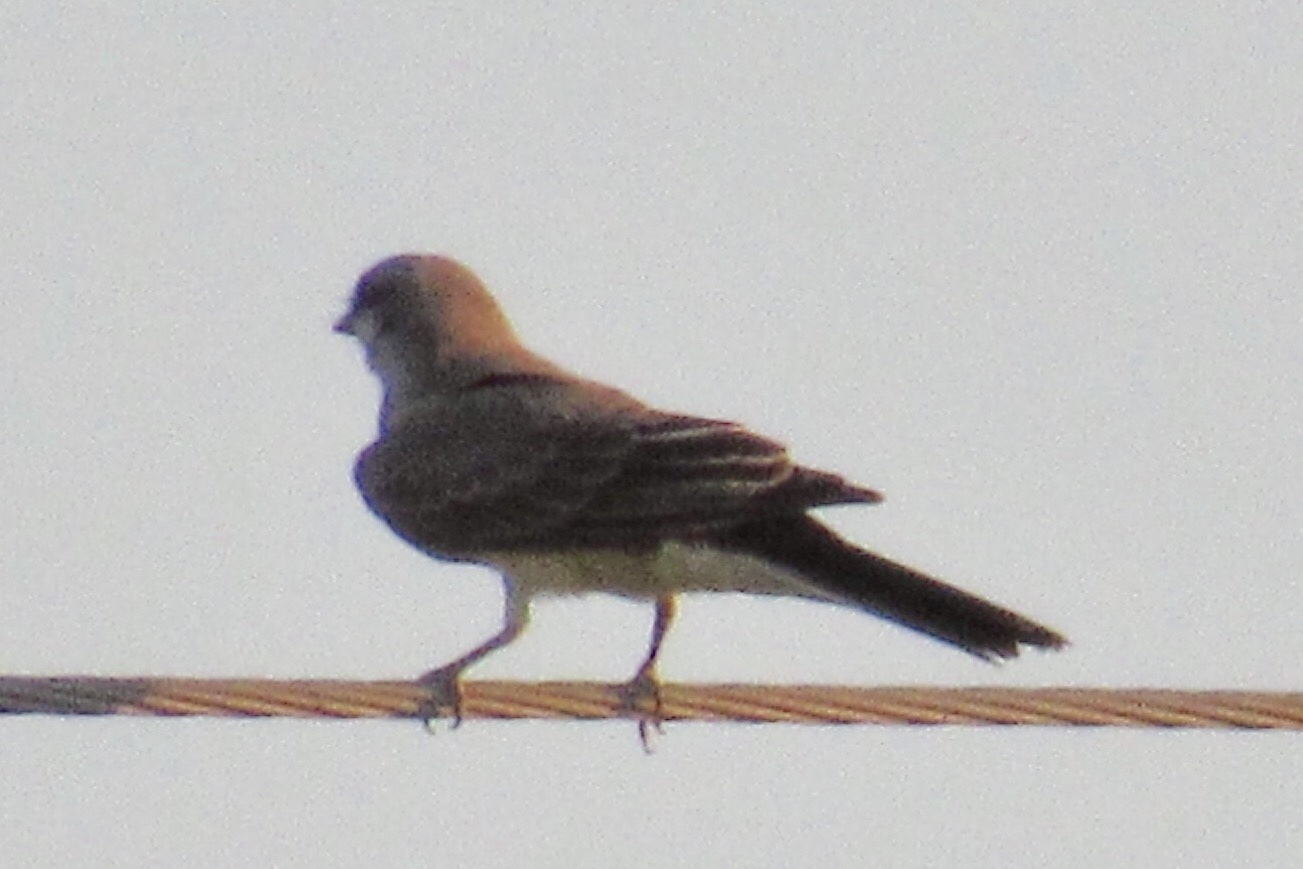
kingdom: Animalia
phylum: Chordata
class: Aves
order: Passeriformes
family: Tyrannidae
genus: Tyrannus
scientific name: Tyrannus verticalis
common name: Western kingbird
